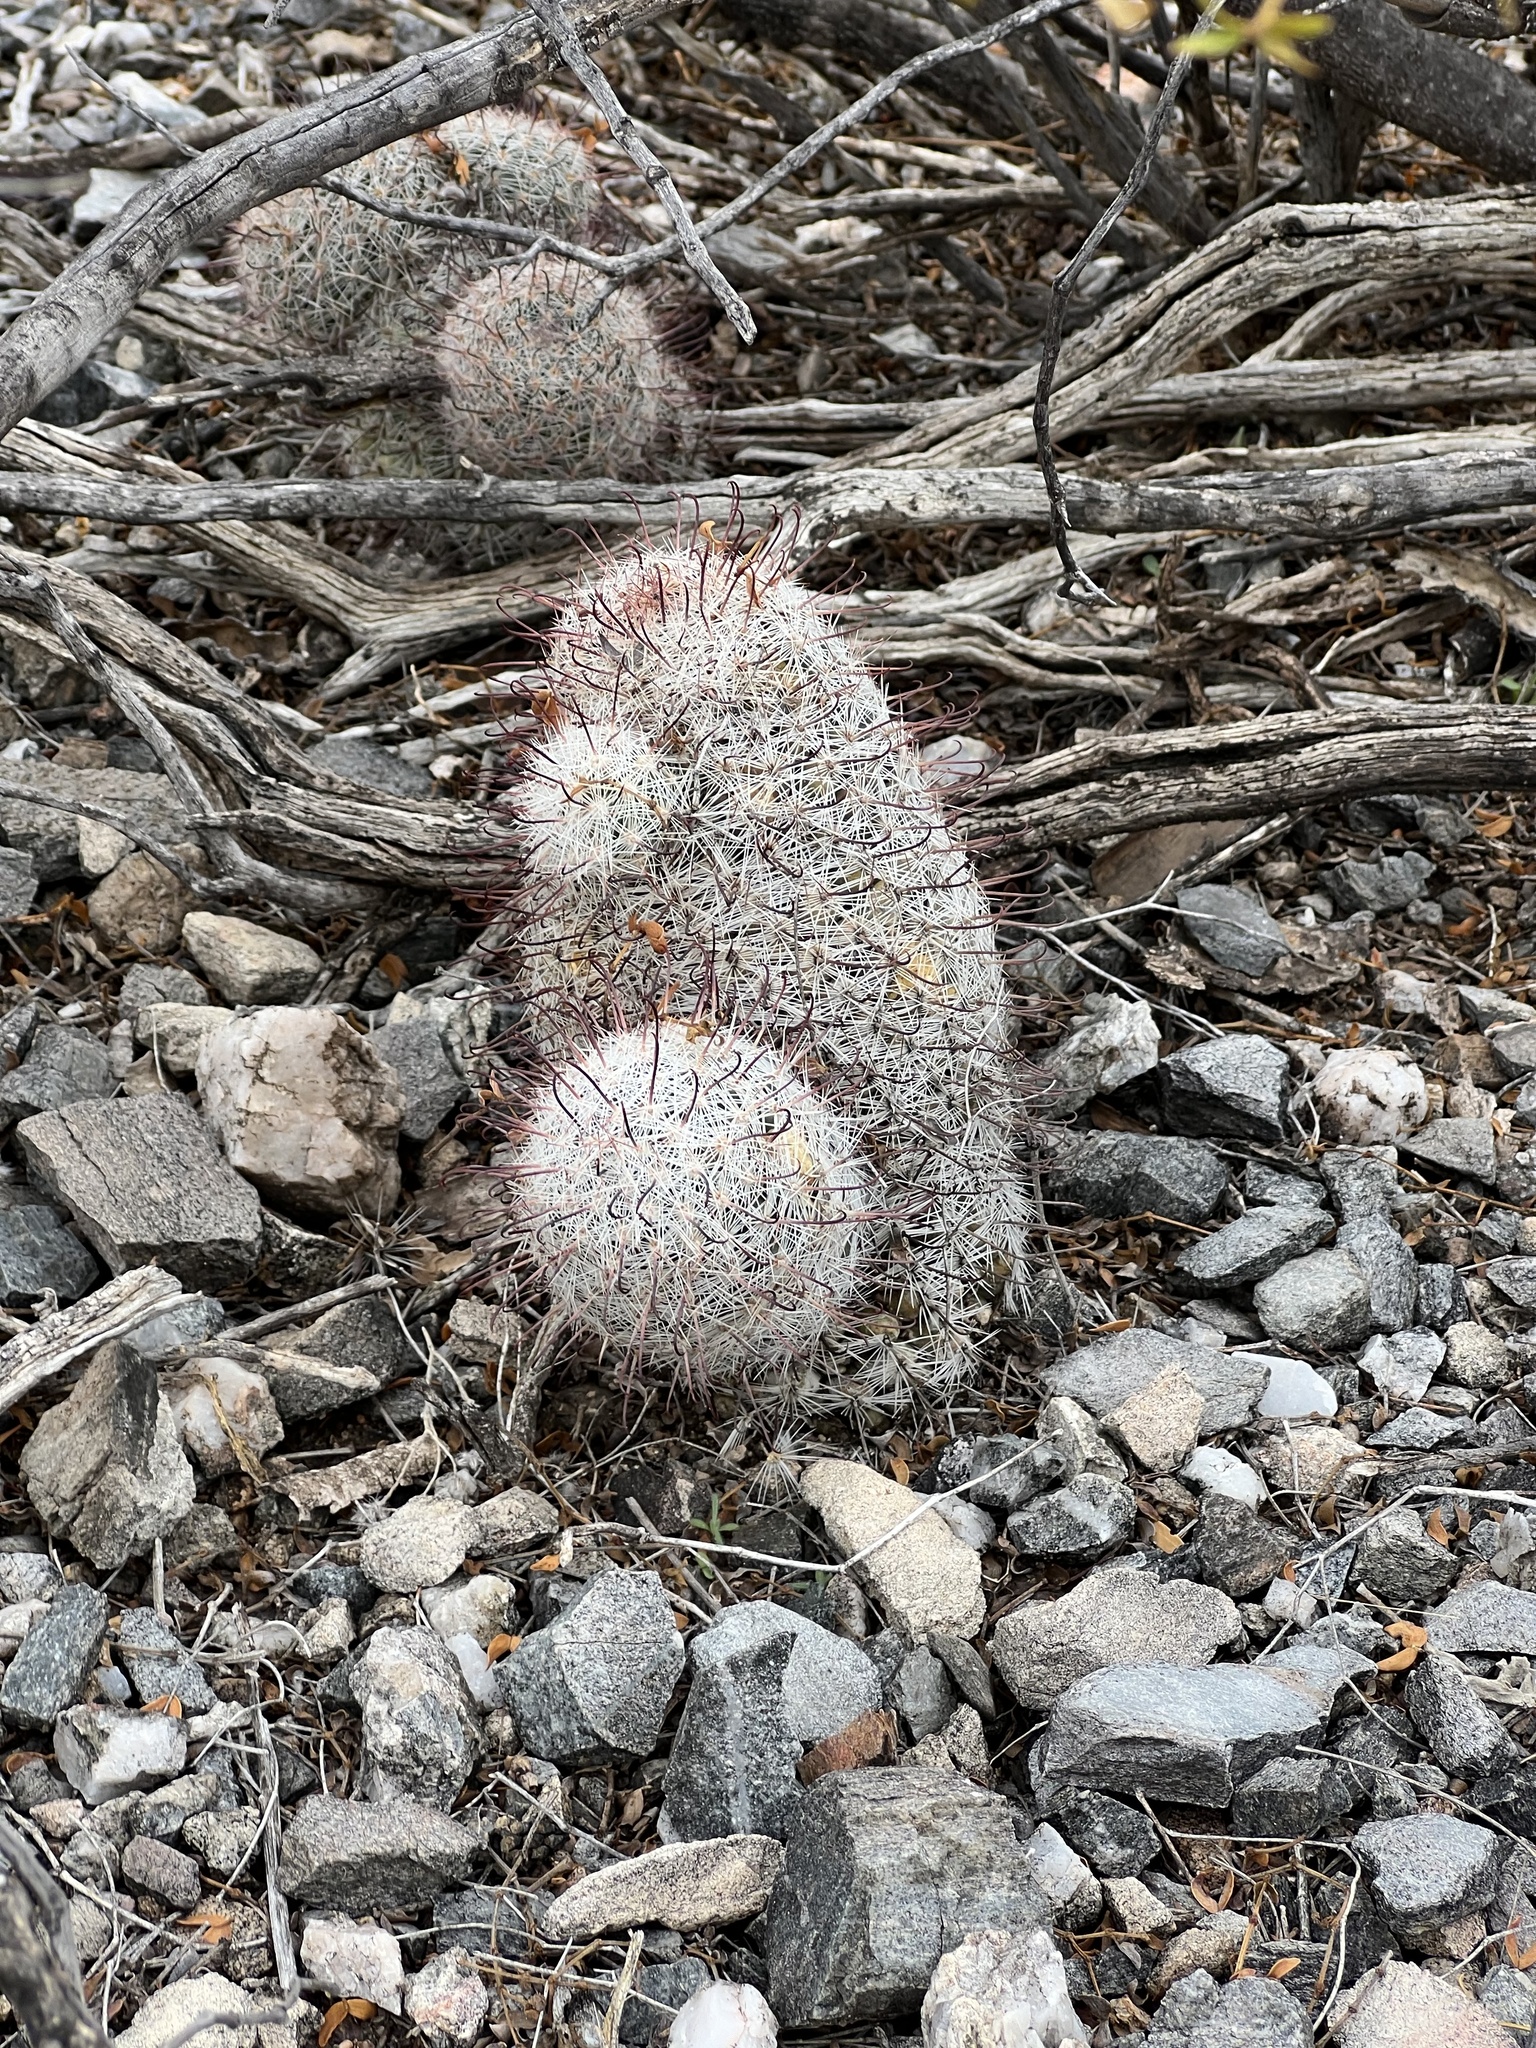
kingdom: Plantae
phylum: Tracheophyta
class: Magnoliopsida
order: Caryophyllales
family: Cactaceae
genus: Cochemiea
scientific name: Cochemiea grahamii
